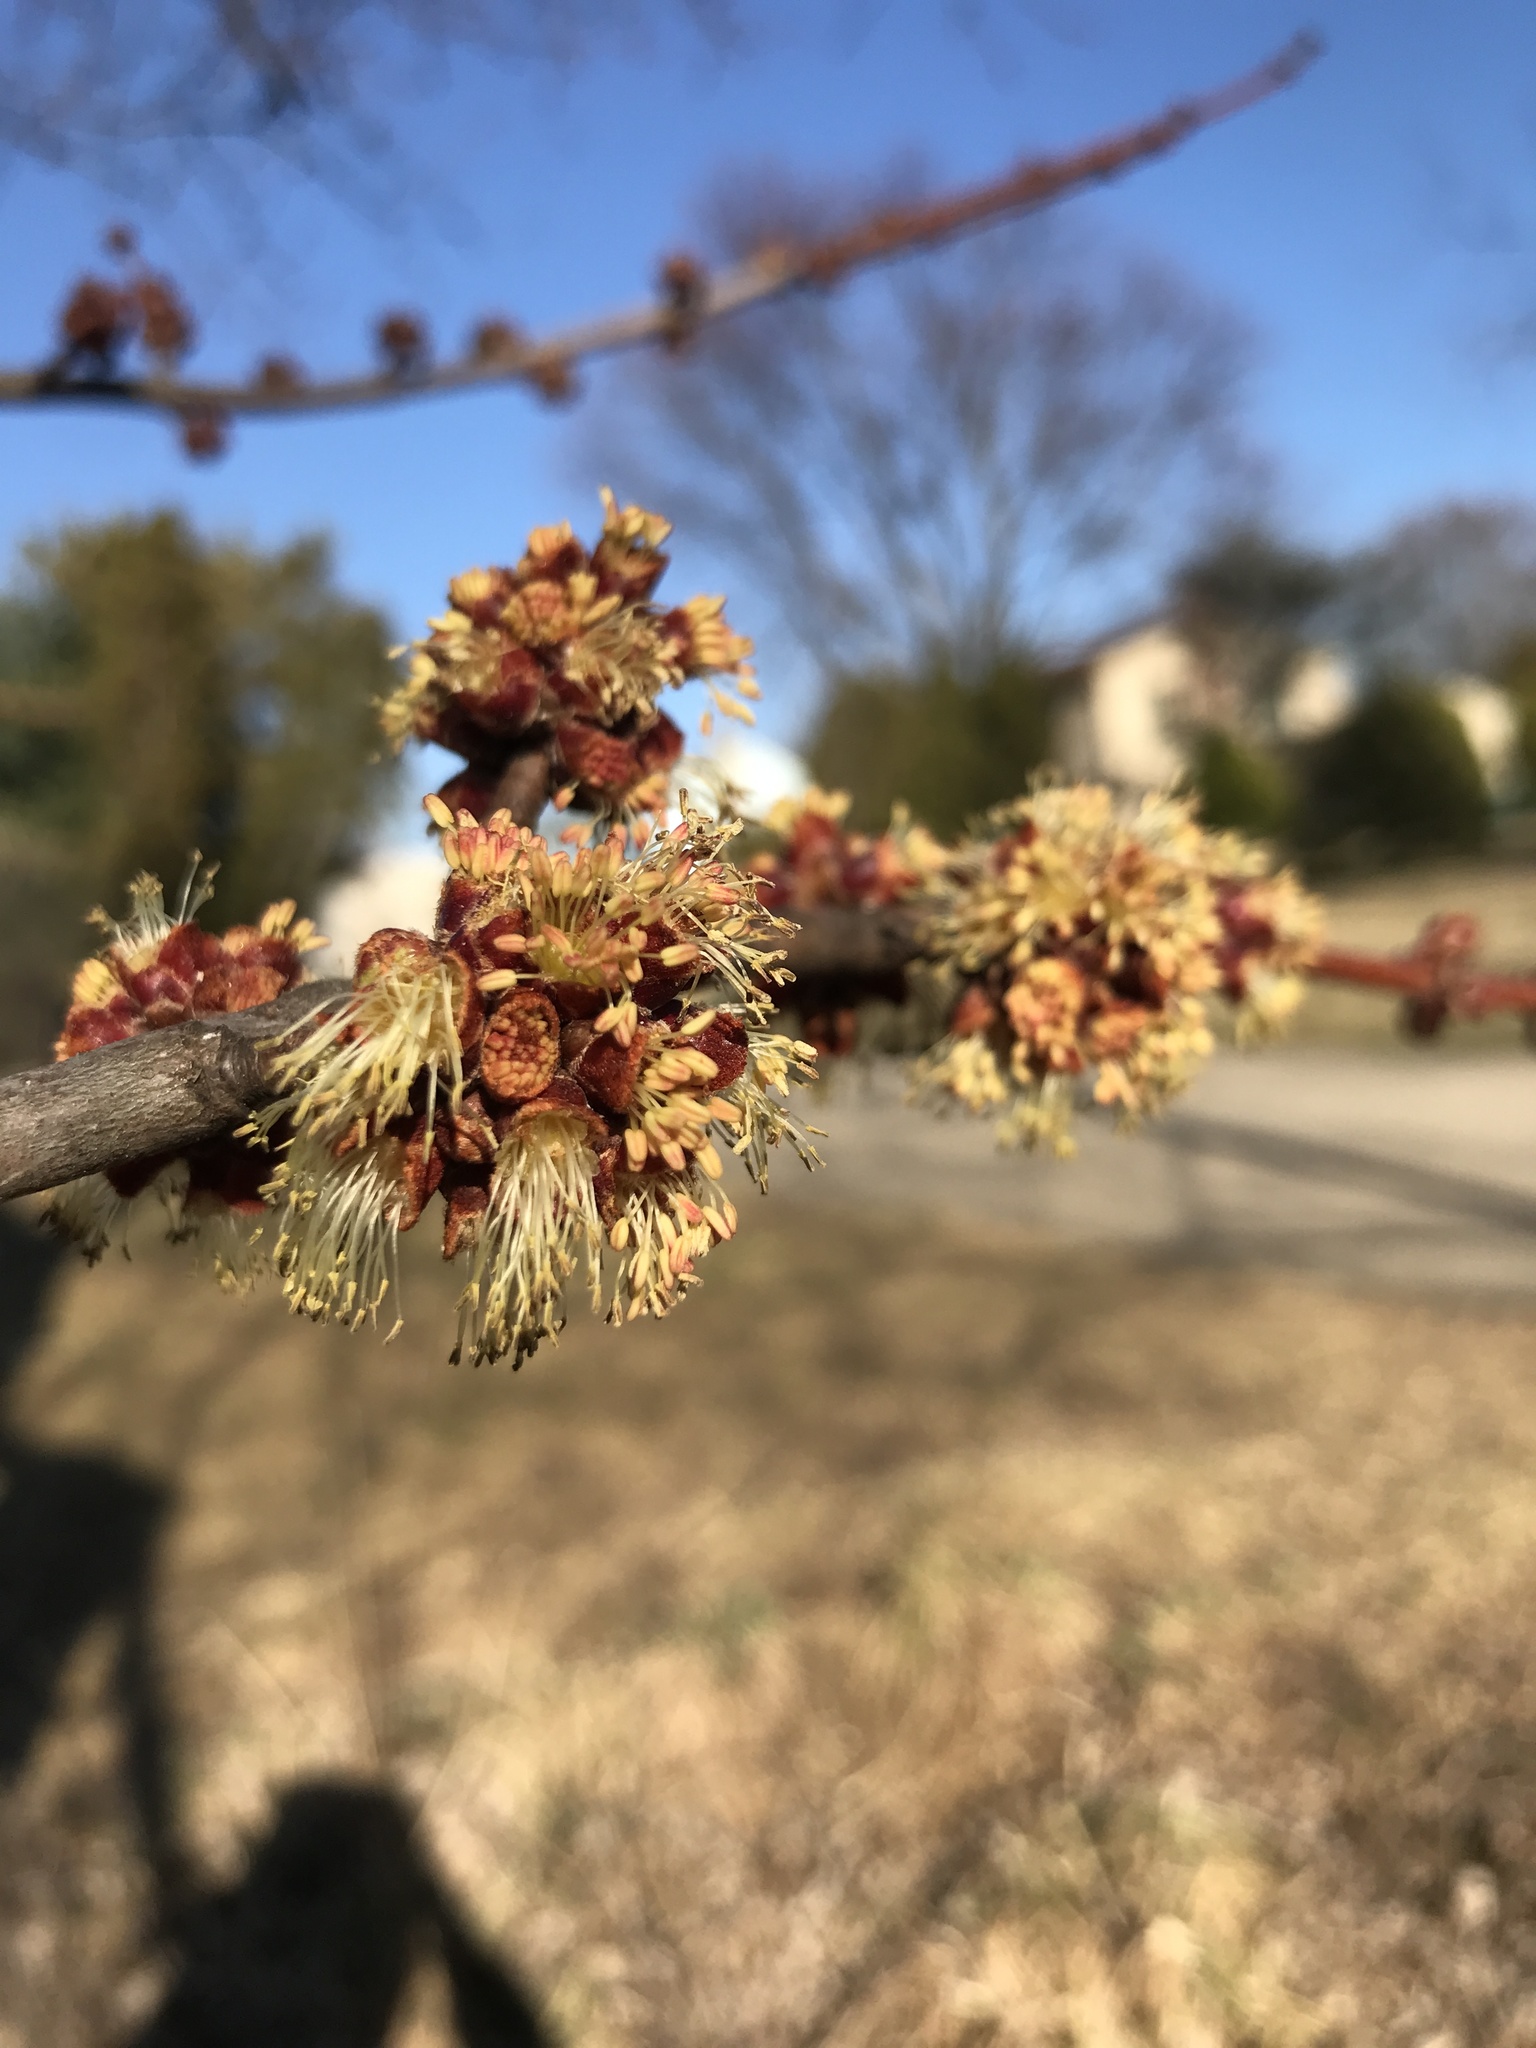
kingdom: Plantae
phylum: Tracheophyta
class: Magnoliopsida
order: Sapindales
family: Sapindaceae
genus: Acer
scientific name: Acer saccharinum
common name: Silver maple
